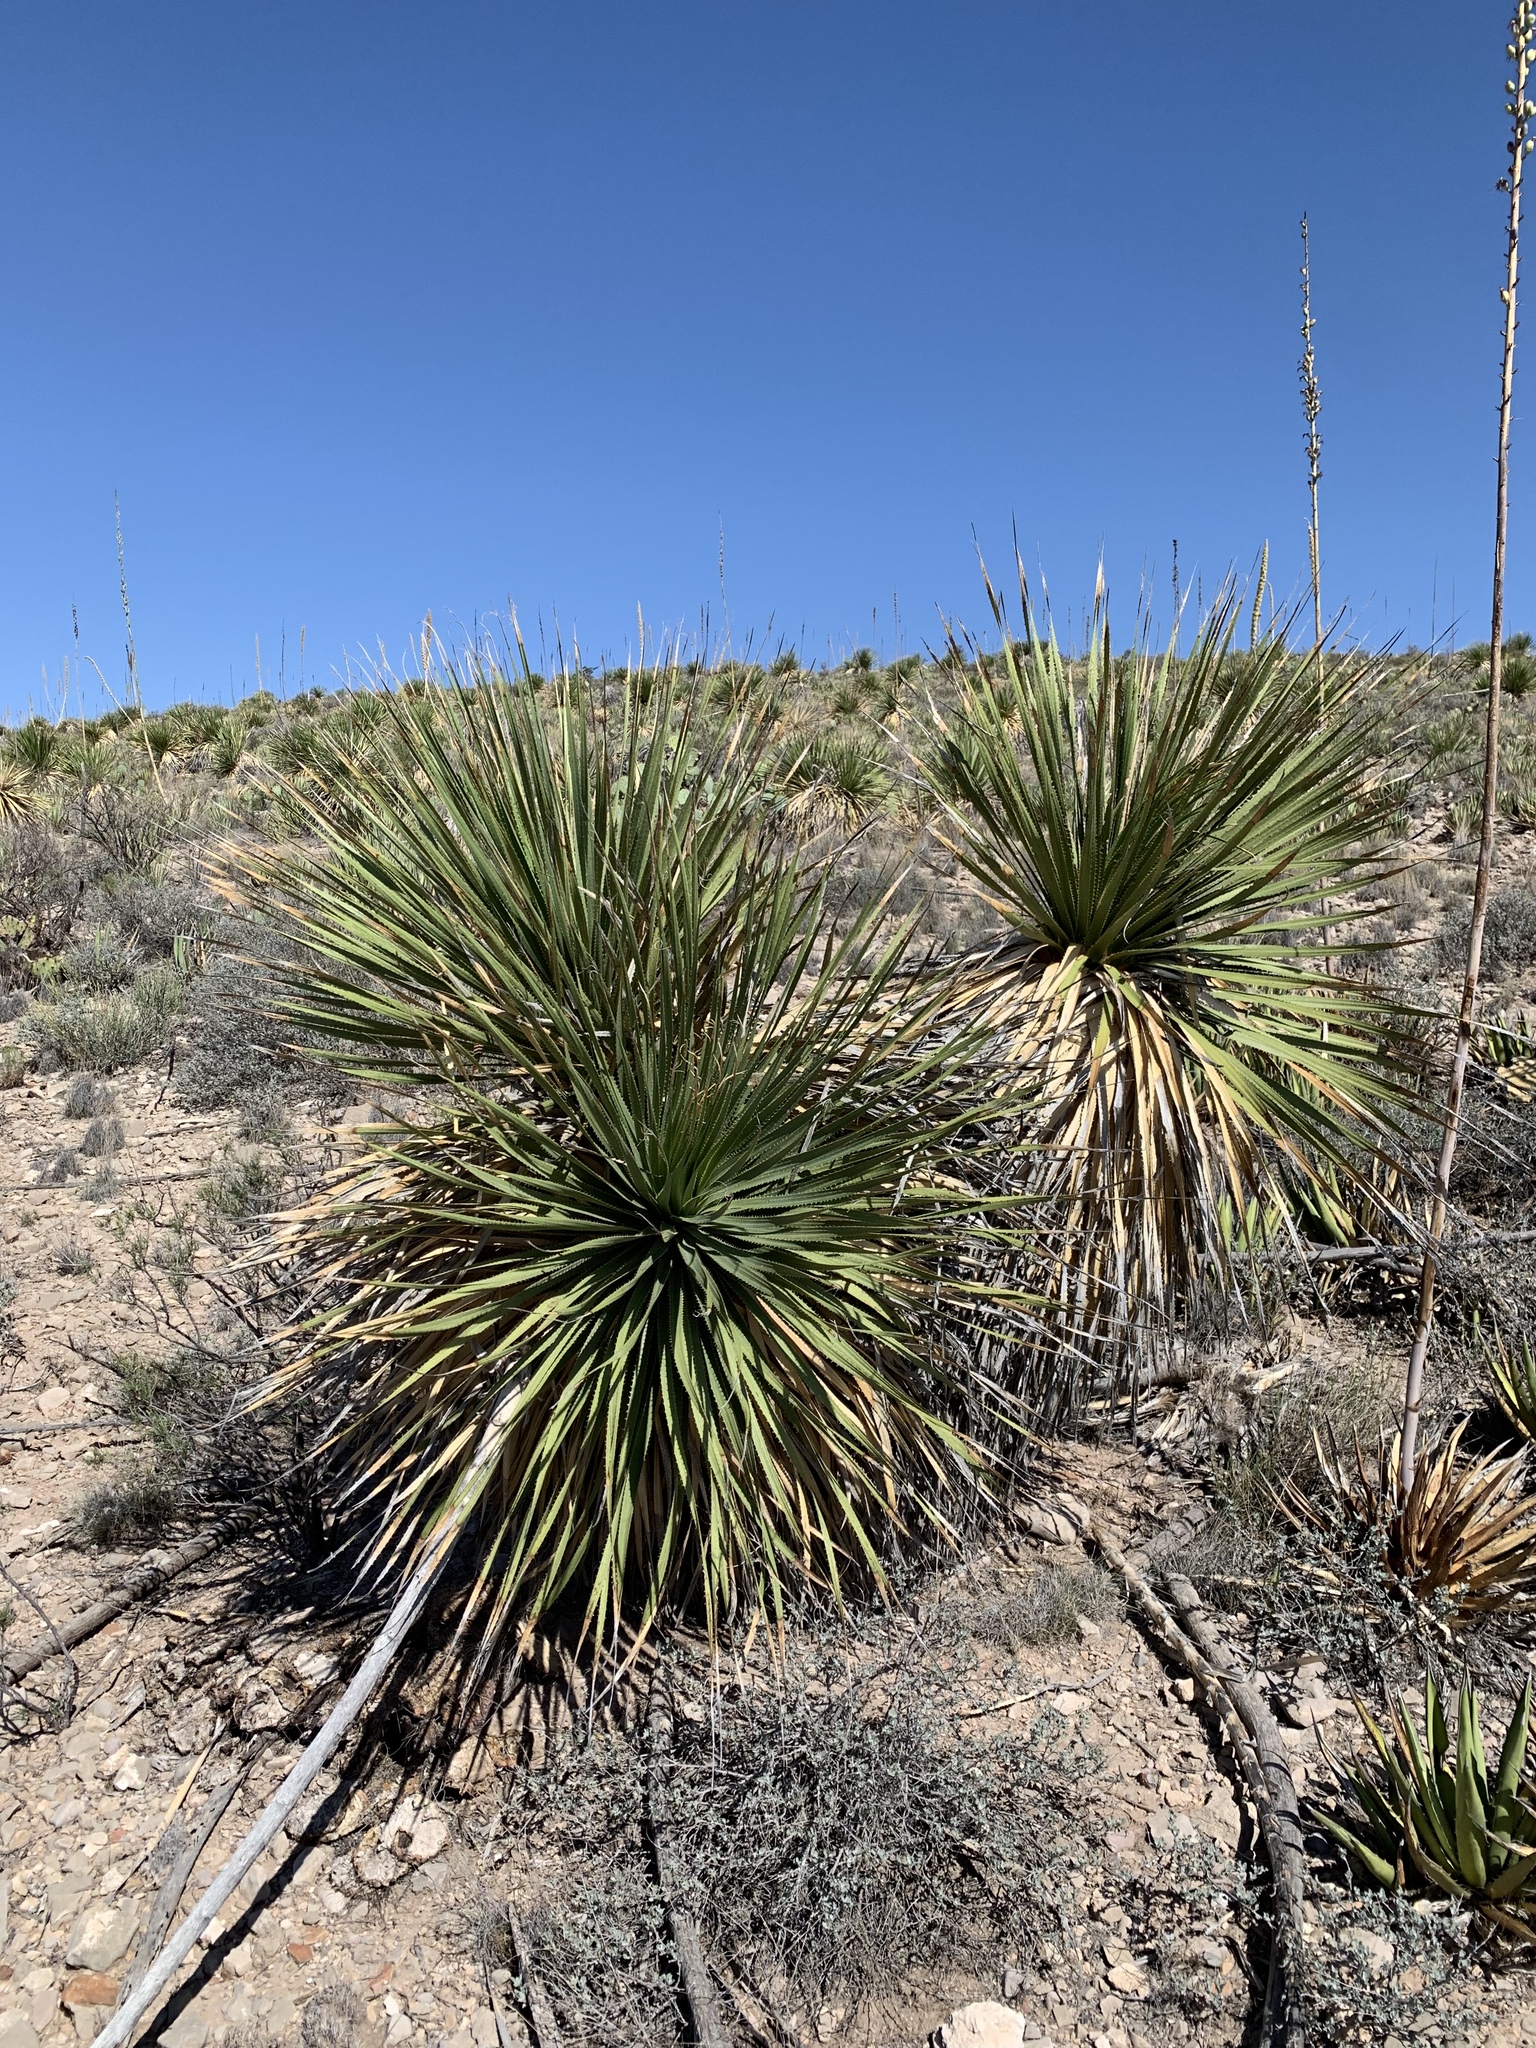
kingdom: Plantae
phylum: Tracheophyta
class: Liliopsida
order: Asparagales
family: Asparagaceae
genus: Dasylirion
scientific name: Dasylirion leiophyllum
